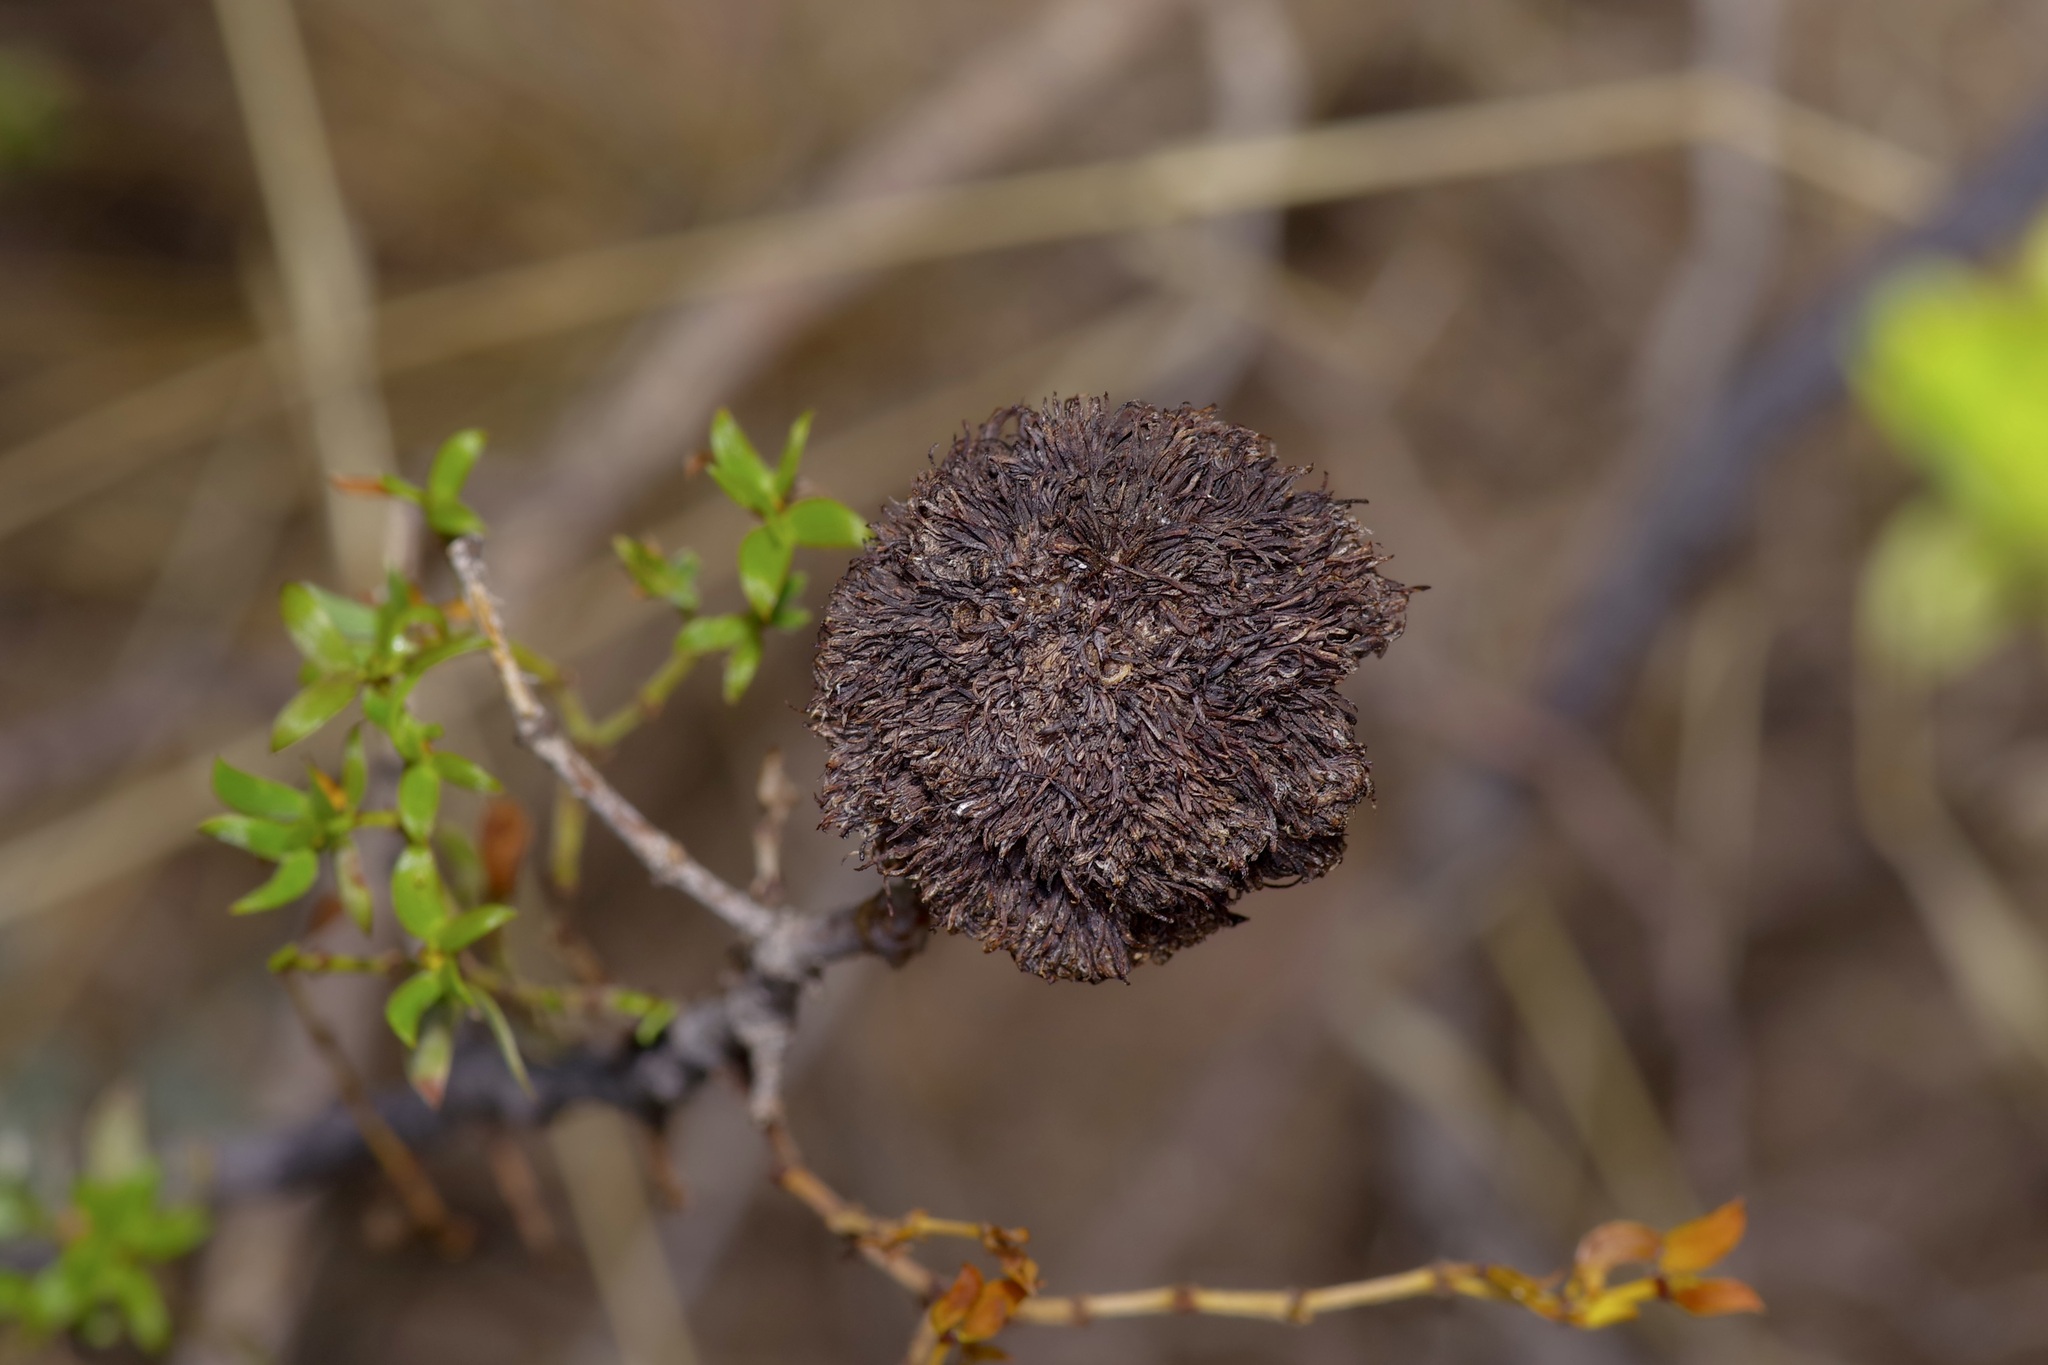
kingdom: Animalia
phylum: Arthropoda
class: Insecta
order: Diptera
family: Cecidomyiidae
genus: Asphondylia
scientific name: Asphondylia auripila
